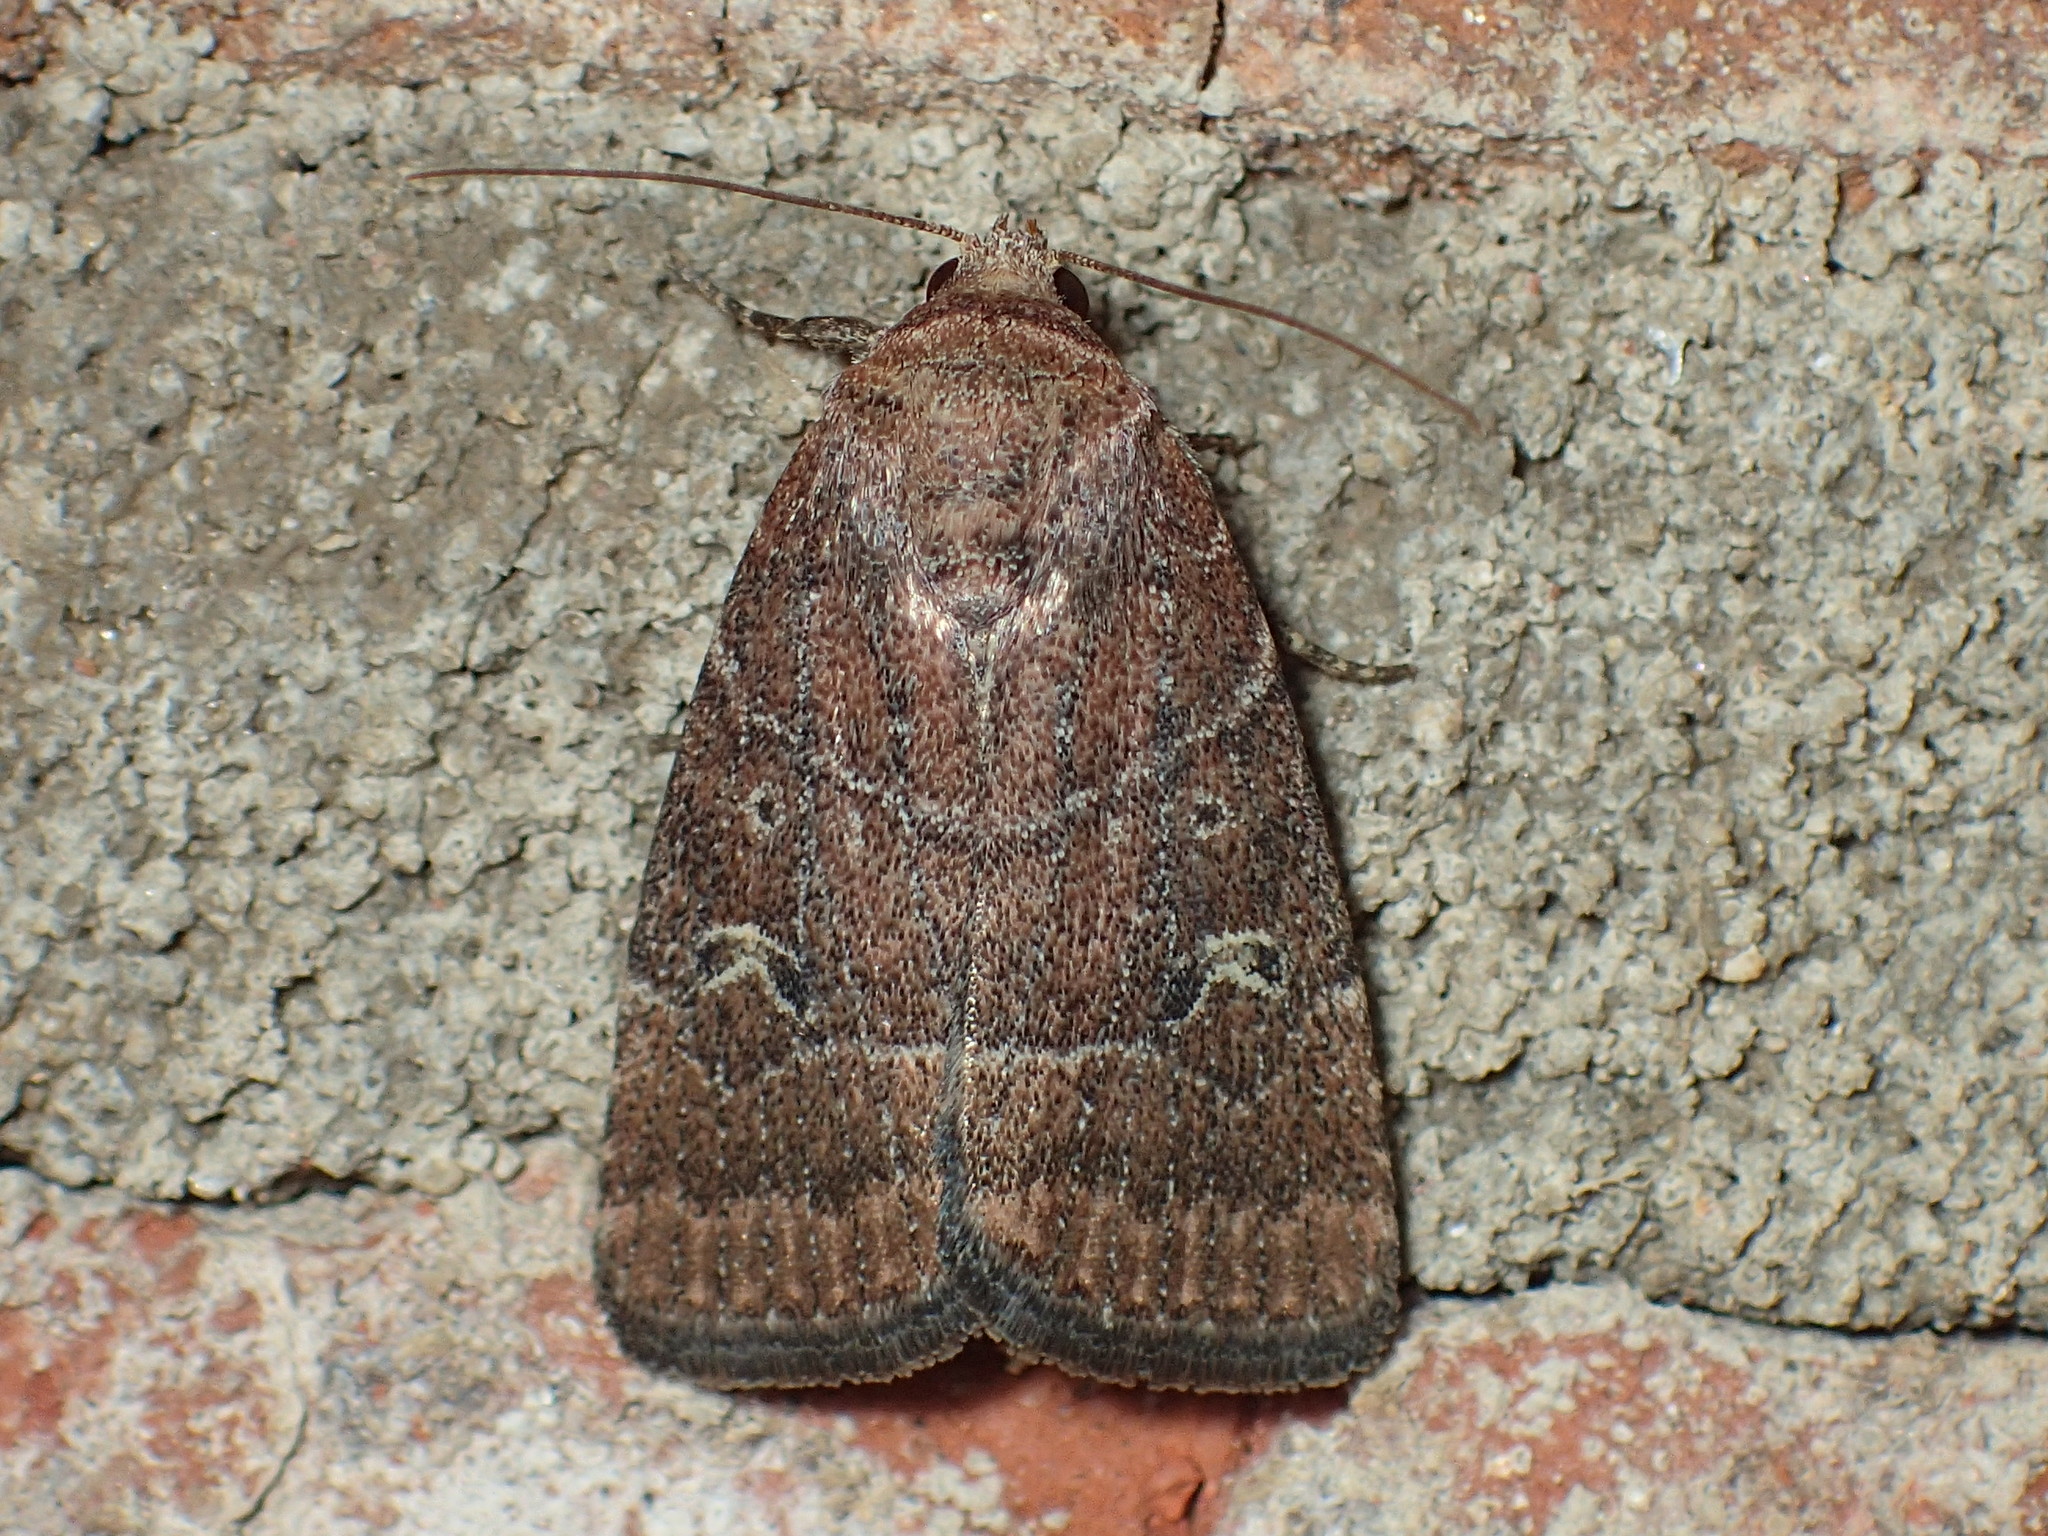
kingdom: Animalia
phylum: Arthropoda
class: Insecta
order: Lepidoptera
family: Noctuidae
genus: Elaphria
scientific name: Elaphria grata
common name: Grateful midget moth
